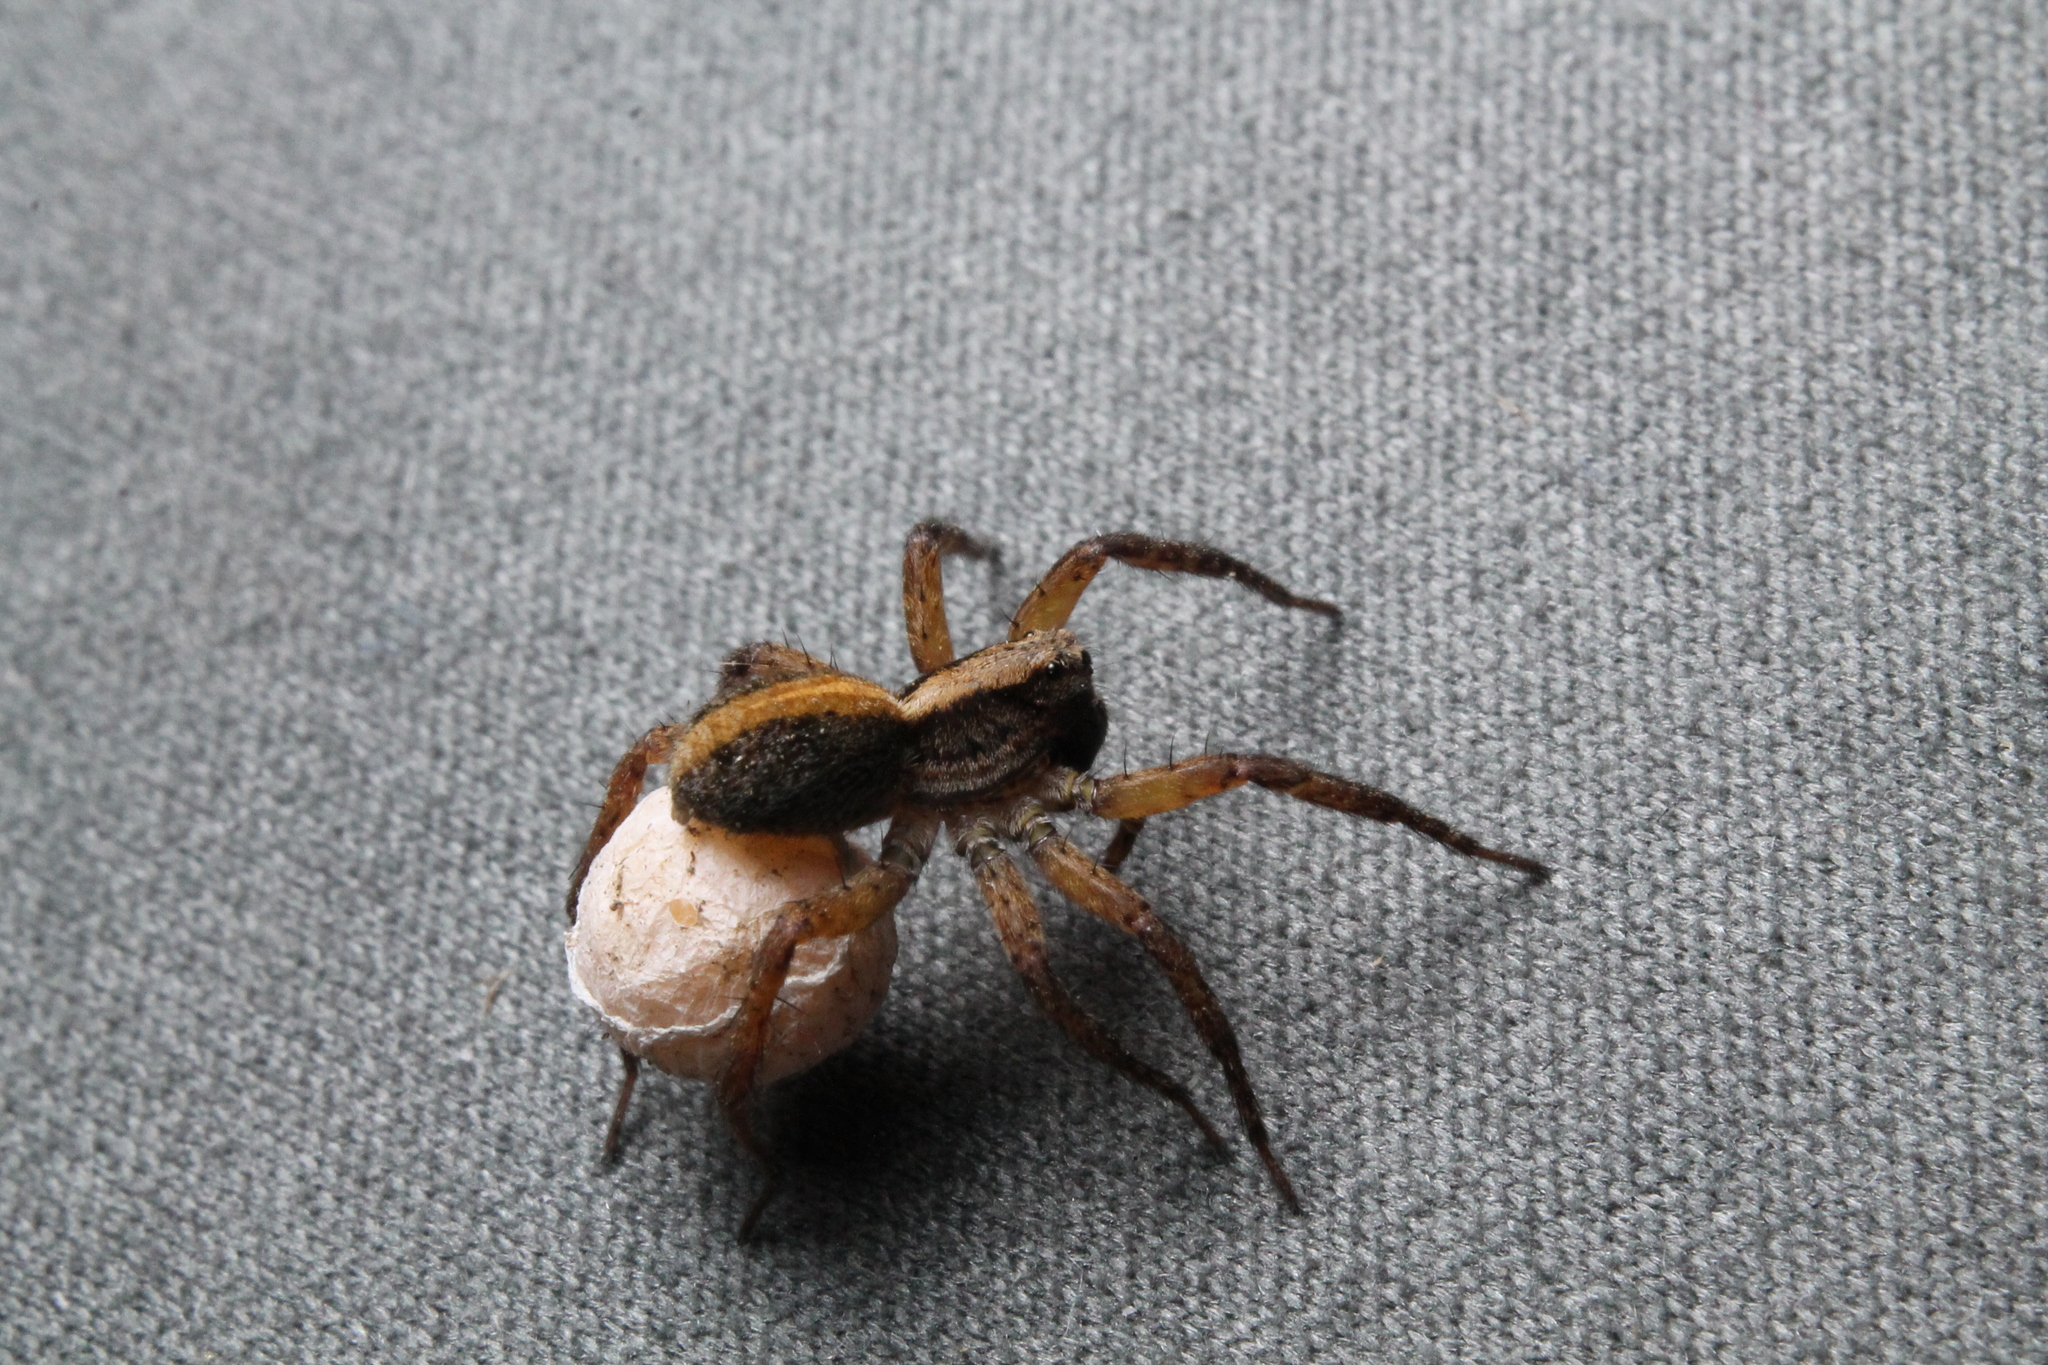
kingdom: Animalia
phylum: Arthropoda
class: Arachnida
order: Araneae
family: Lycosidae
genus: Anoteropsis
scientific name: Anoteropsis hilaris
